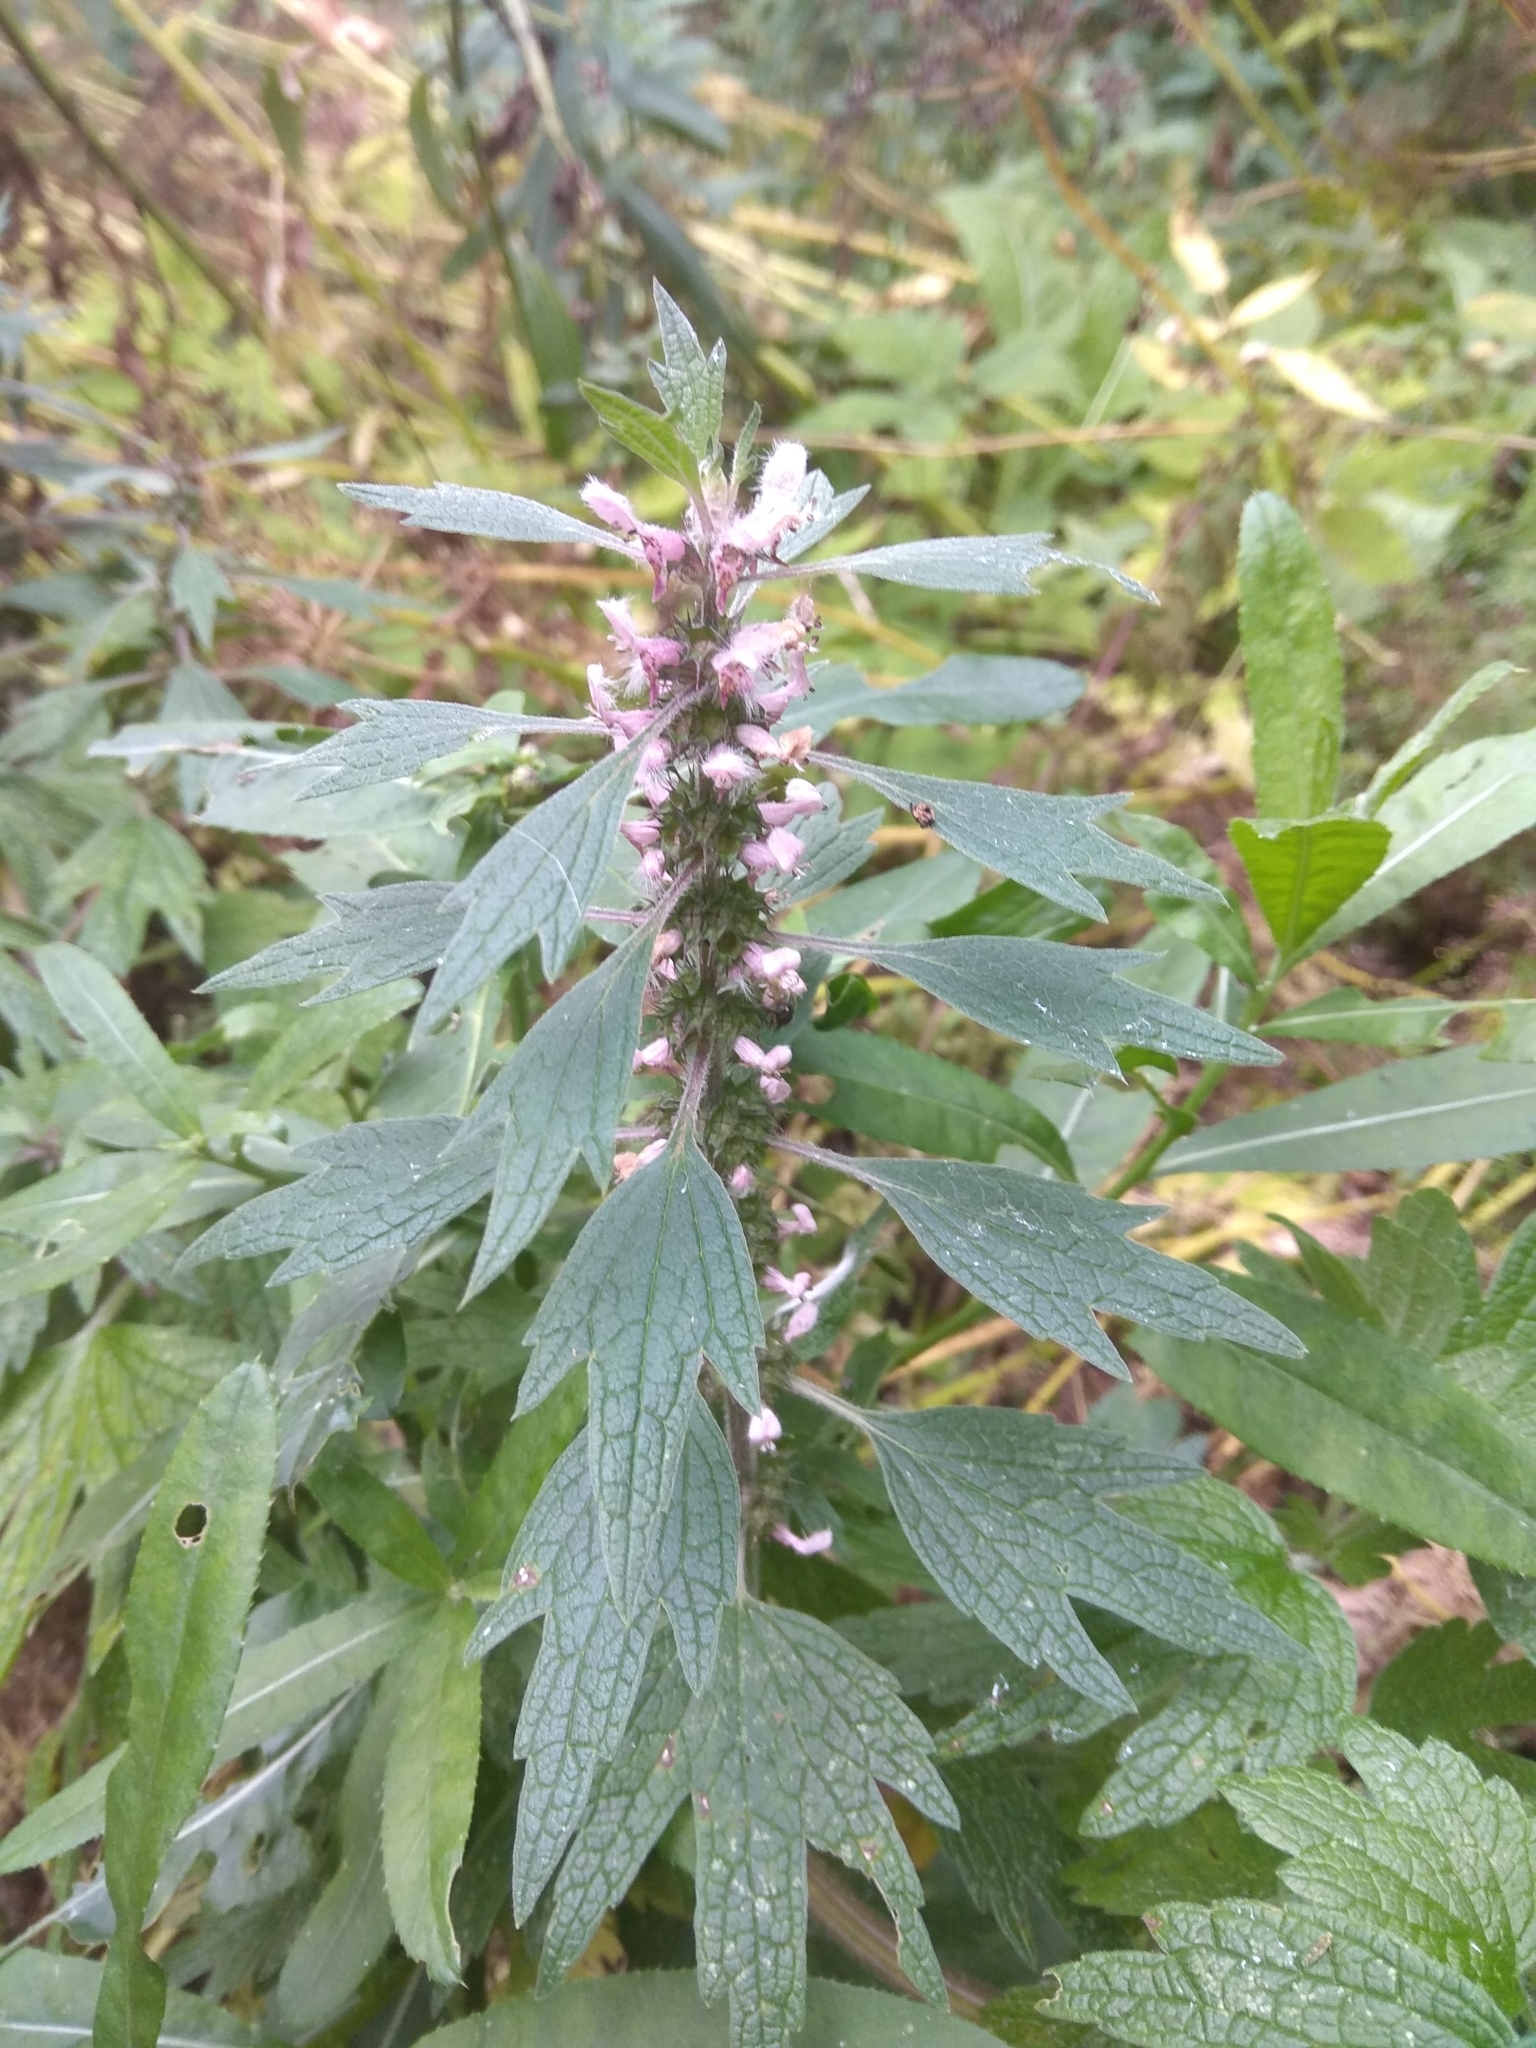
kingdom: Plantae
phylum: Tracheophyta
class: Magnoliopsida
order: Lamiales
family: Lamiaceae
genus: Leonurus
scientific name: Leonurus quinquelobatus
